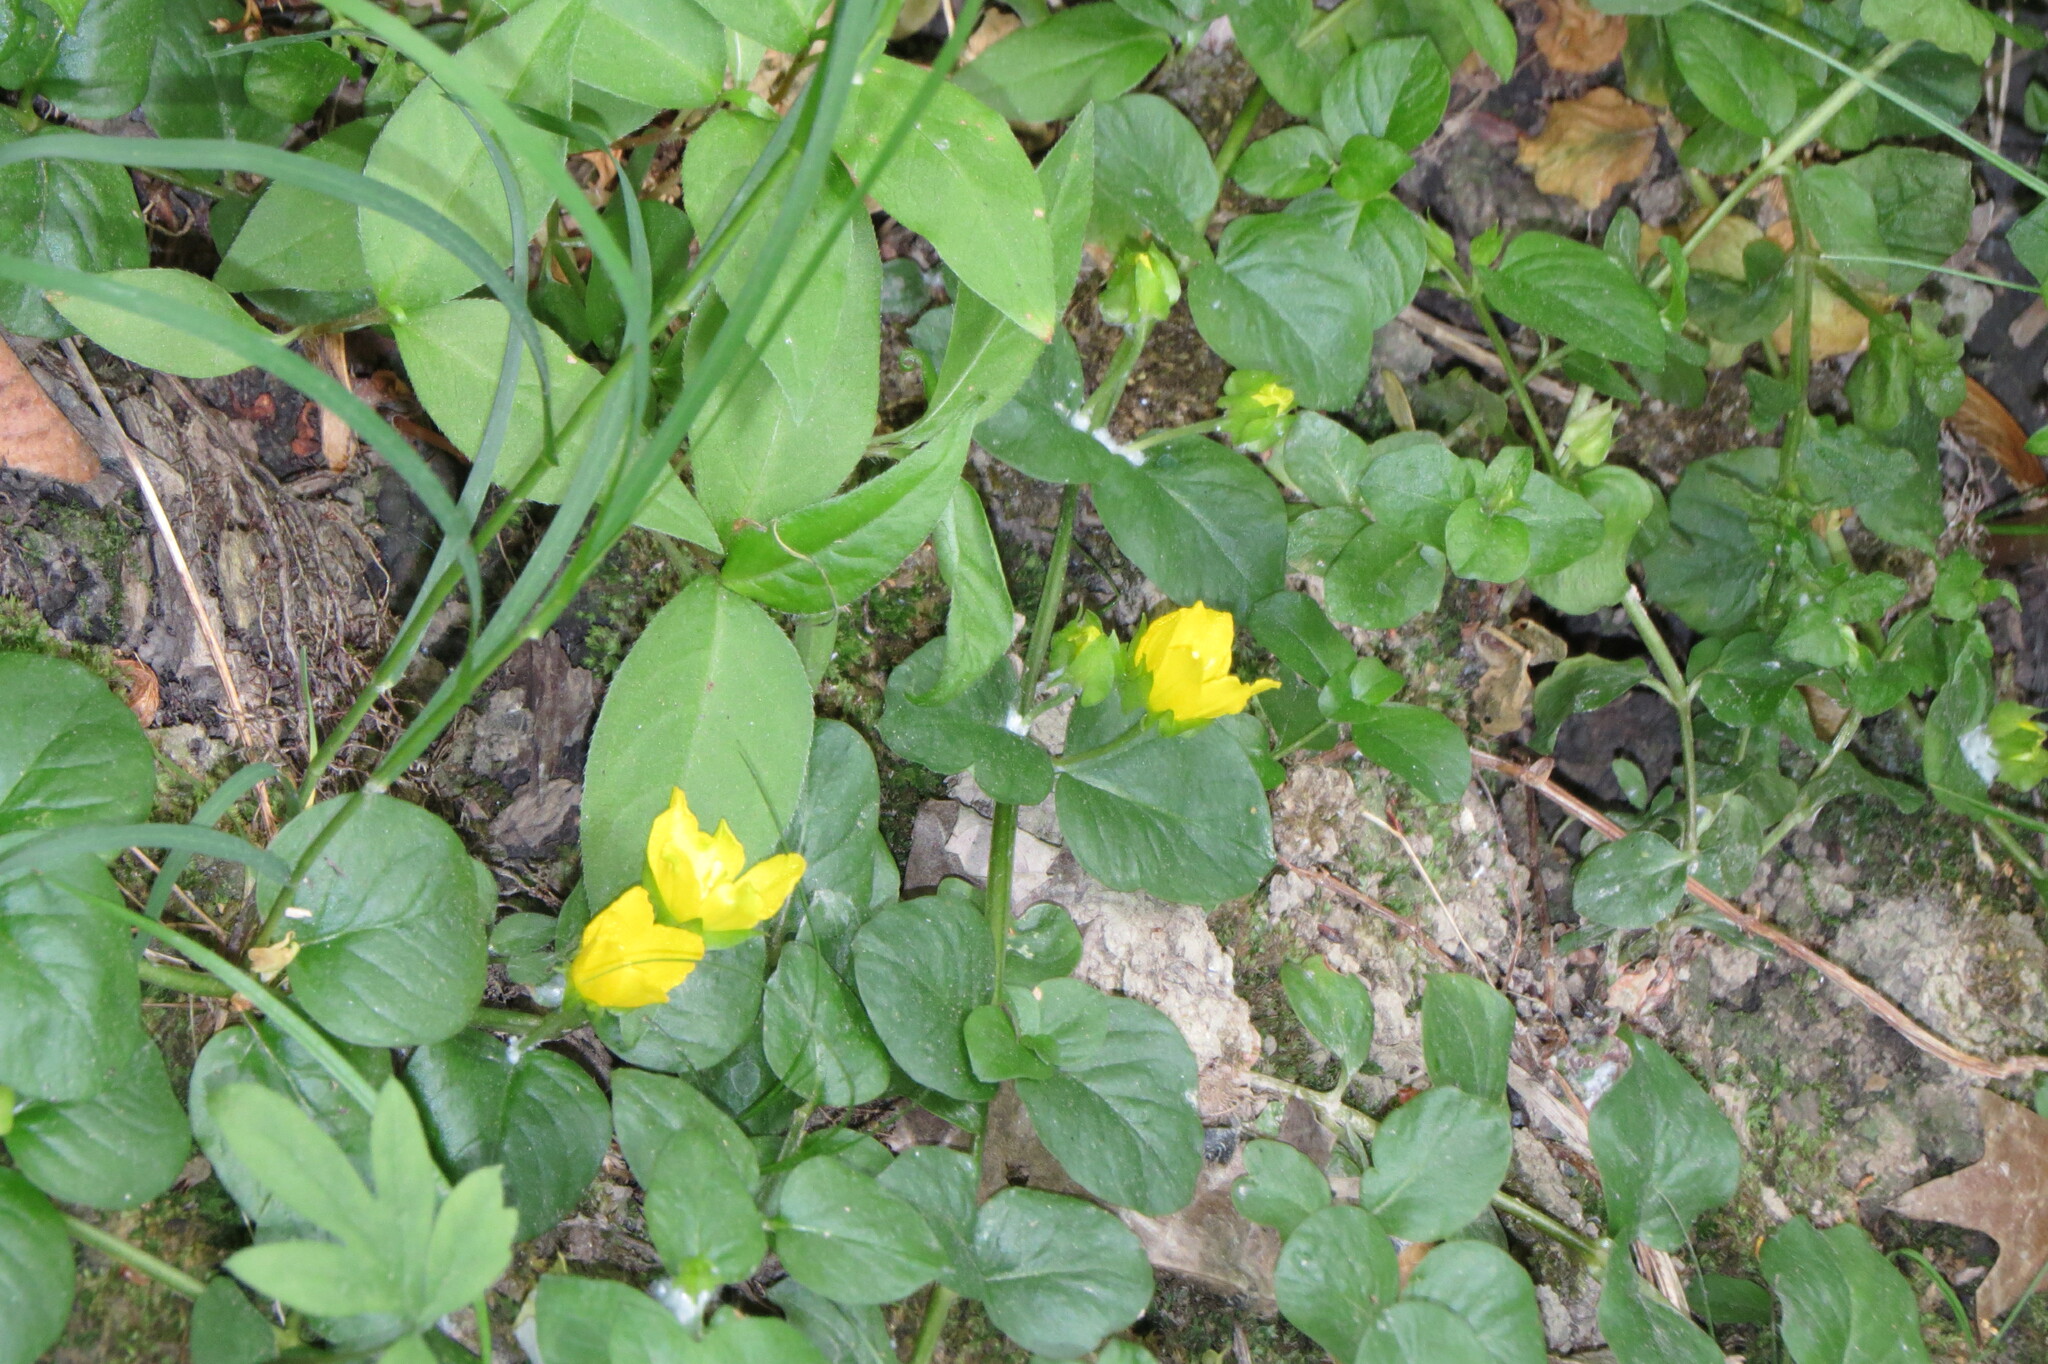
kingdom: Plantae
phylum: Tracheophyta
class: Magnoliopsida
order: Ericales
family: Primulaceae
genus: Lysimachia
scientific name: Lysimachia nummularia
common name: Moneywort
